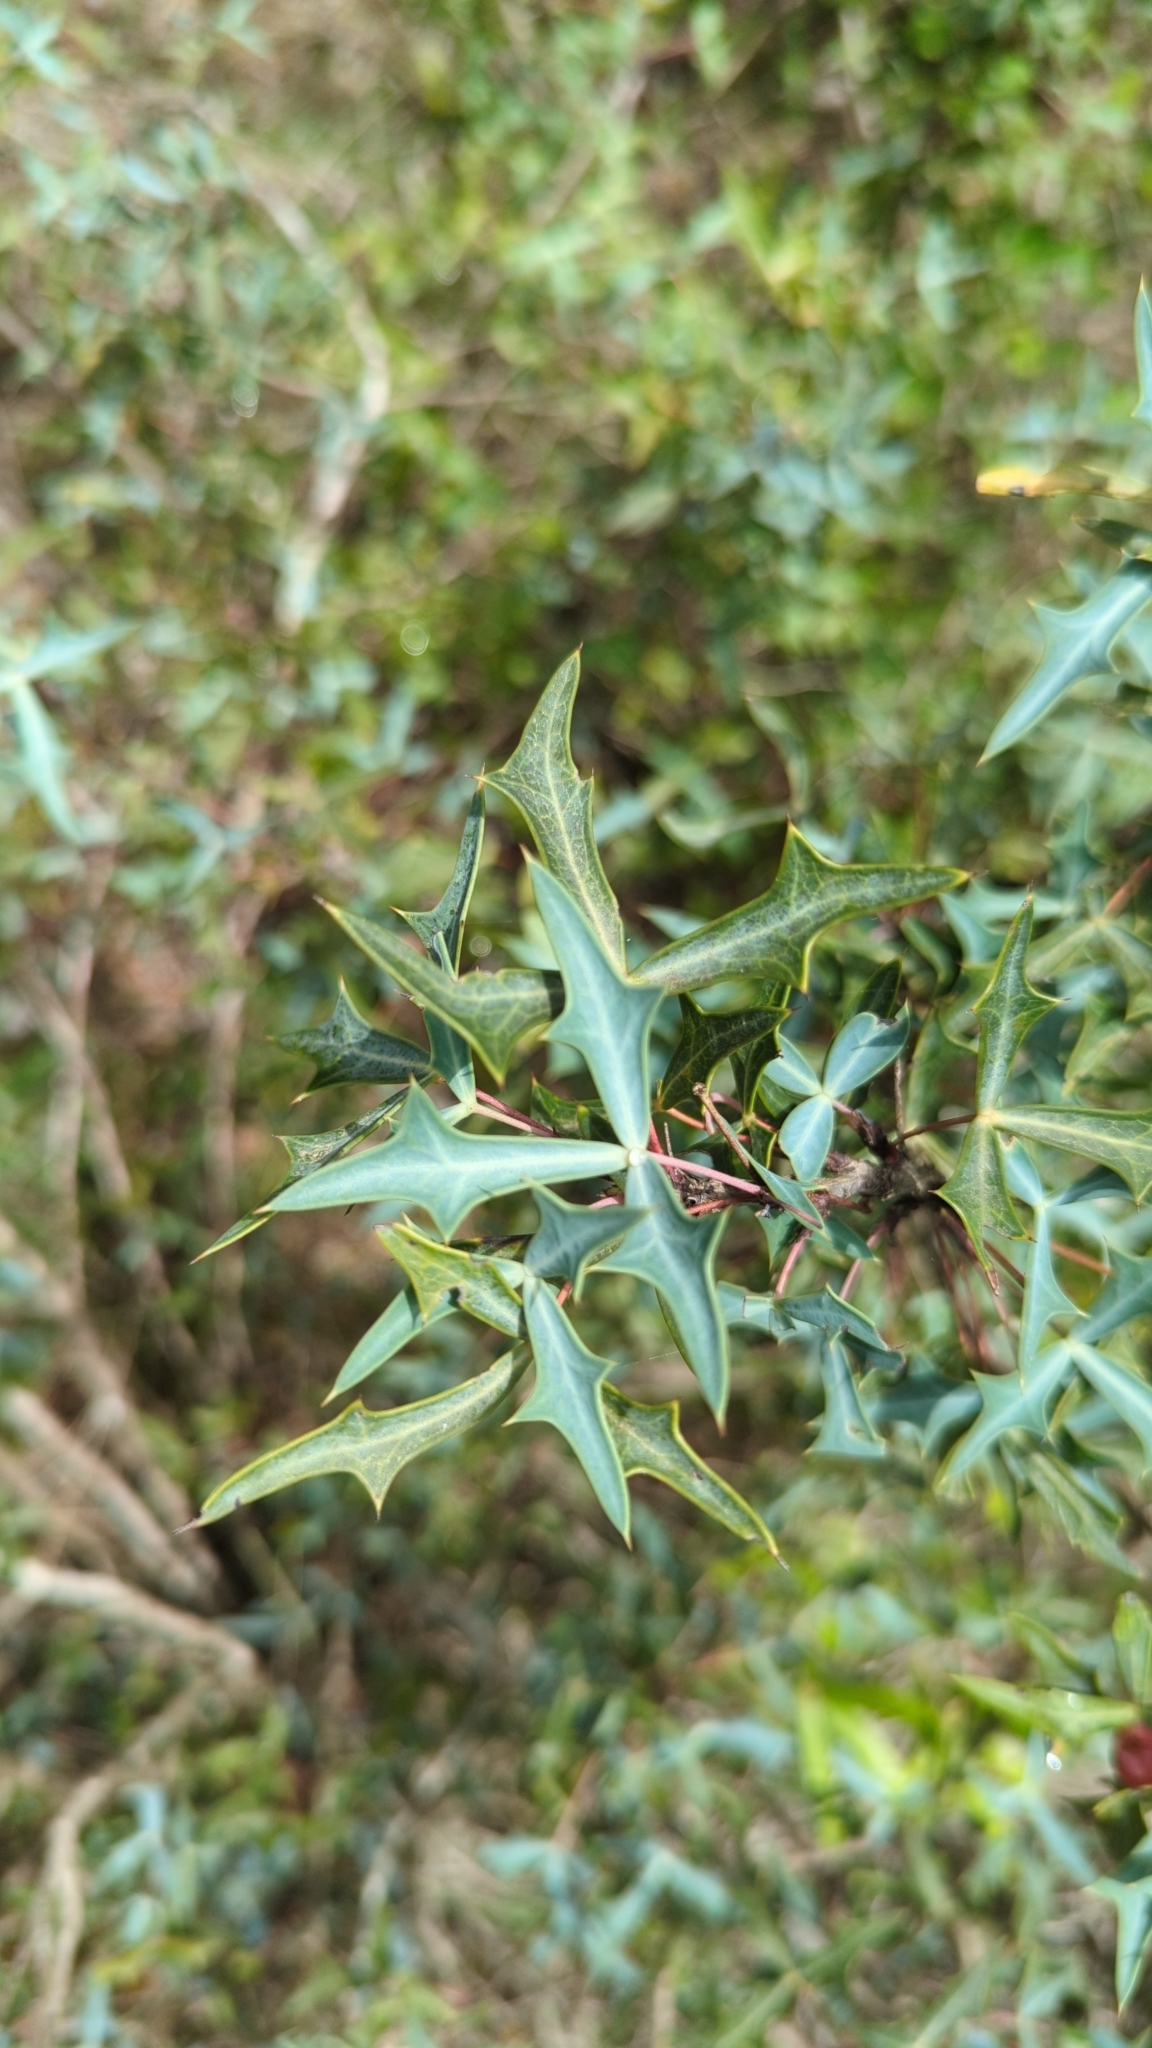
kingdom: Plantae
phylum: Tracheophyta
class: Magnoliopsida
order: Ranunculales
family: Berberidaceae
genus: Alloberberis
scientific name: Alloberberis trifoliolata
